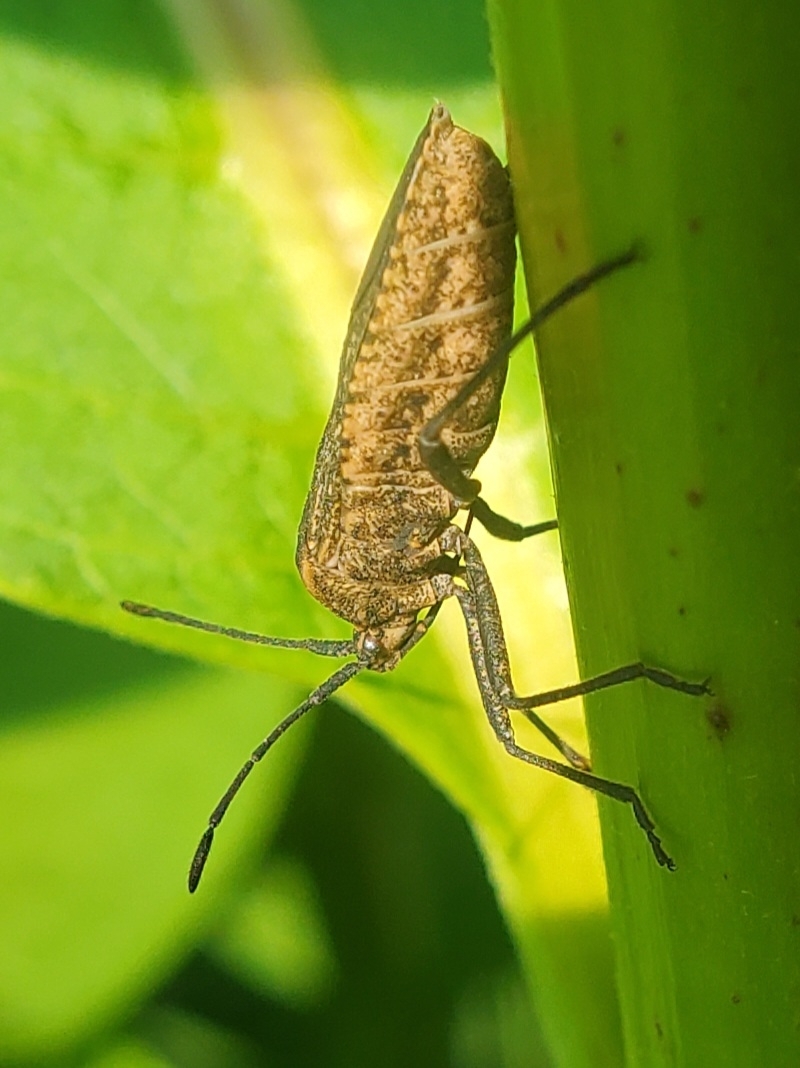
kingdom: Animalia
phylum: Arthropoda
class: Insecta
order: Hemiptera
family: Coreidae
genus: Anasa
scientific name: Anasa tristis
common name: Squash bug
